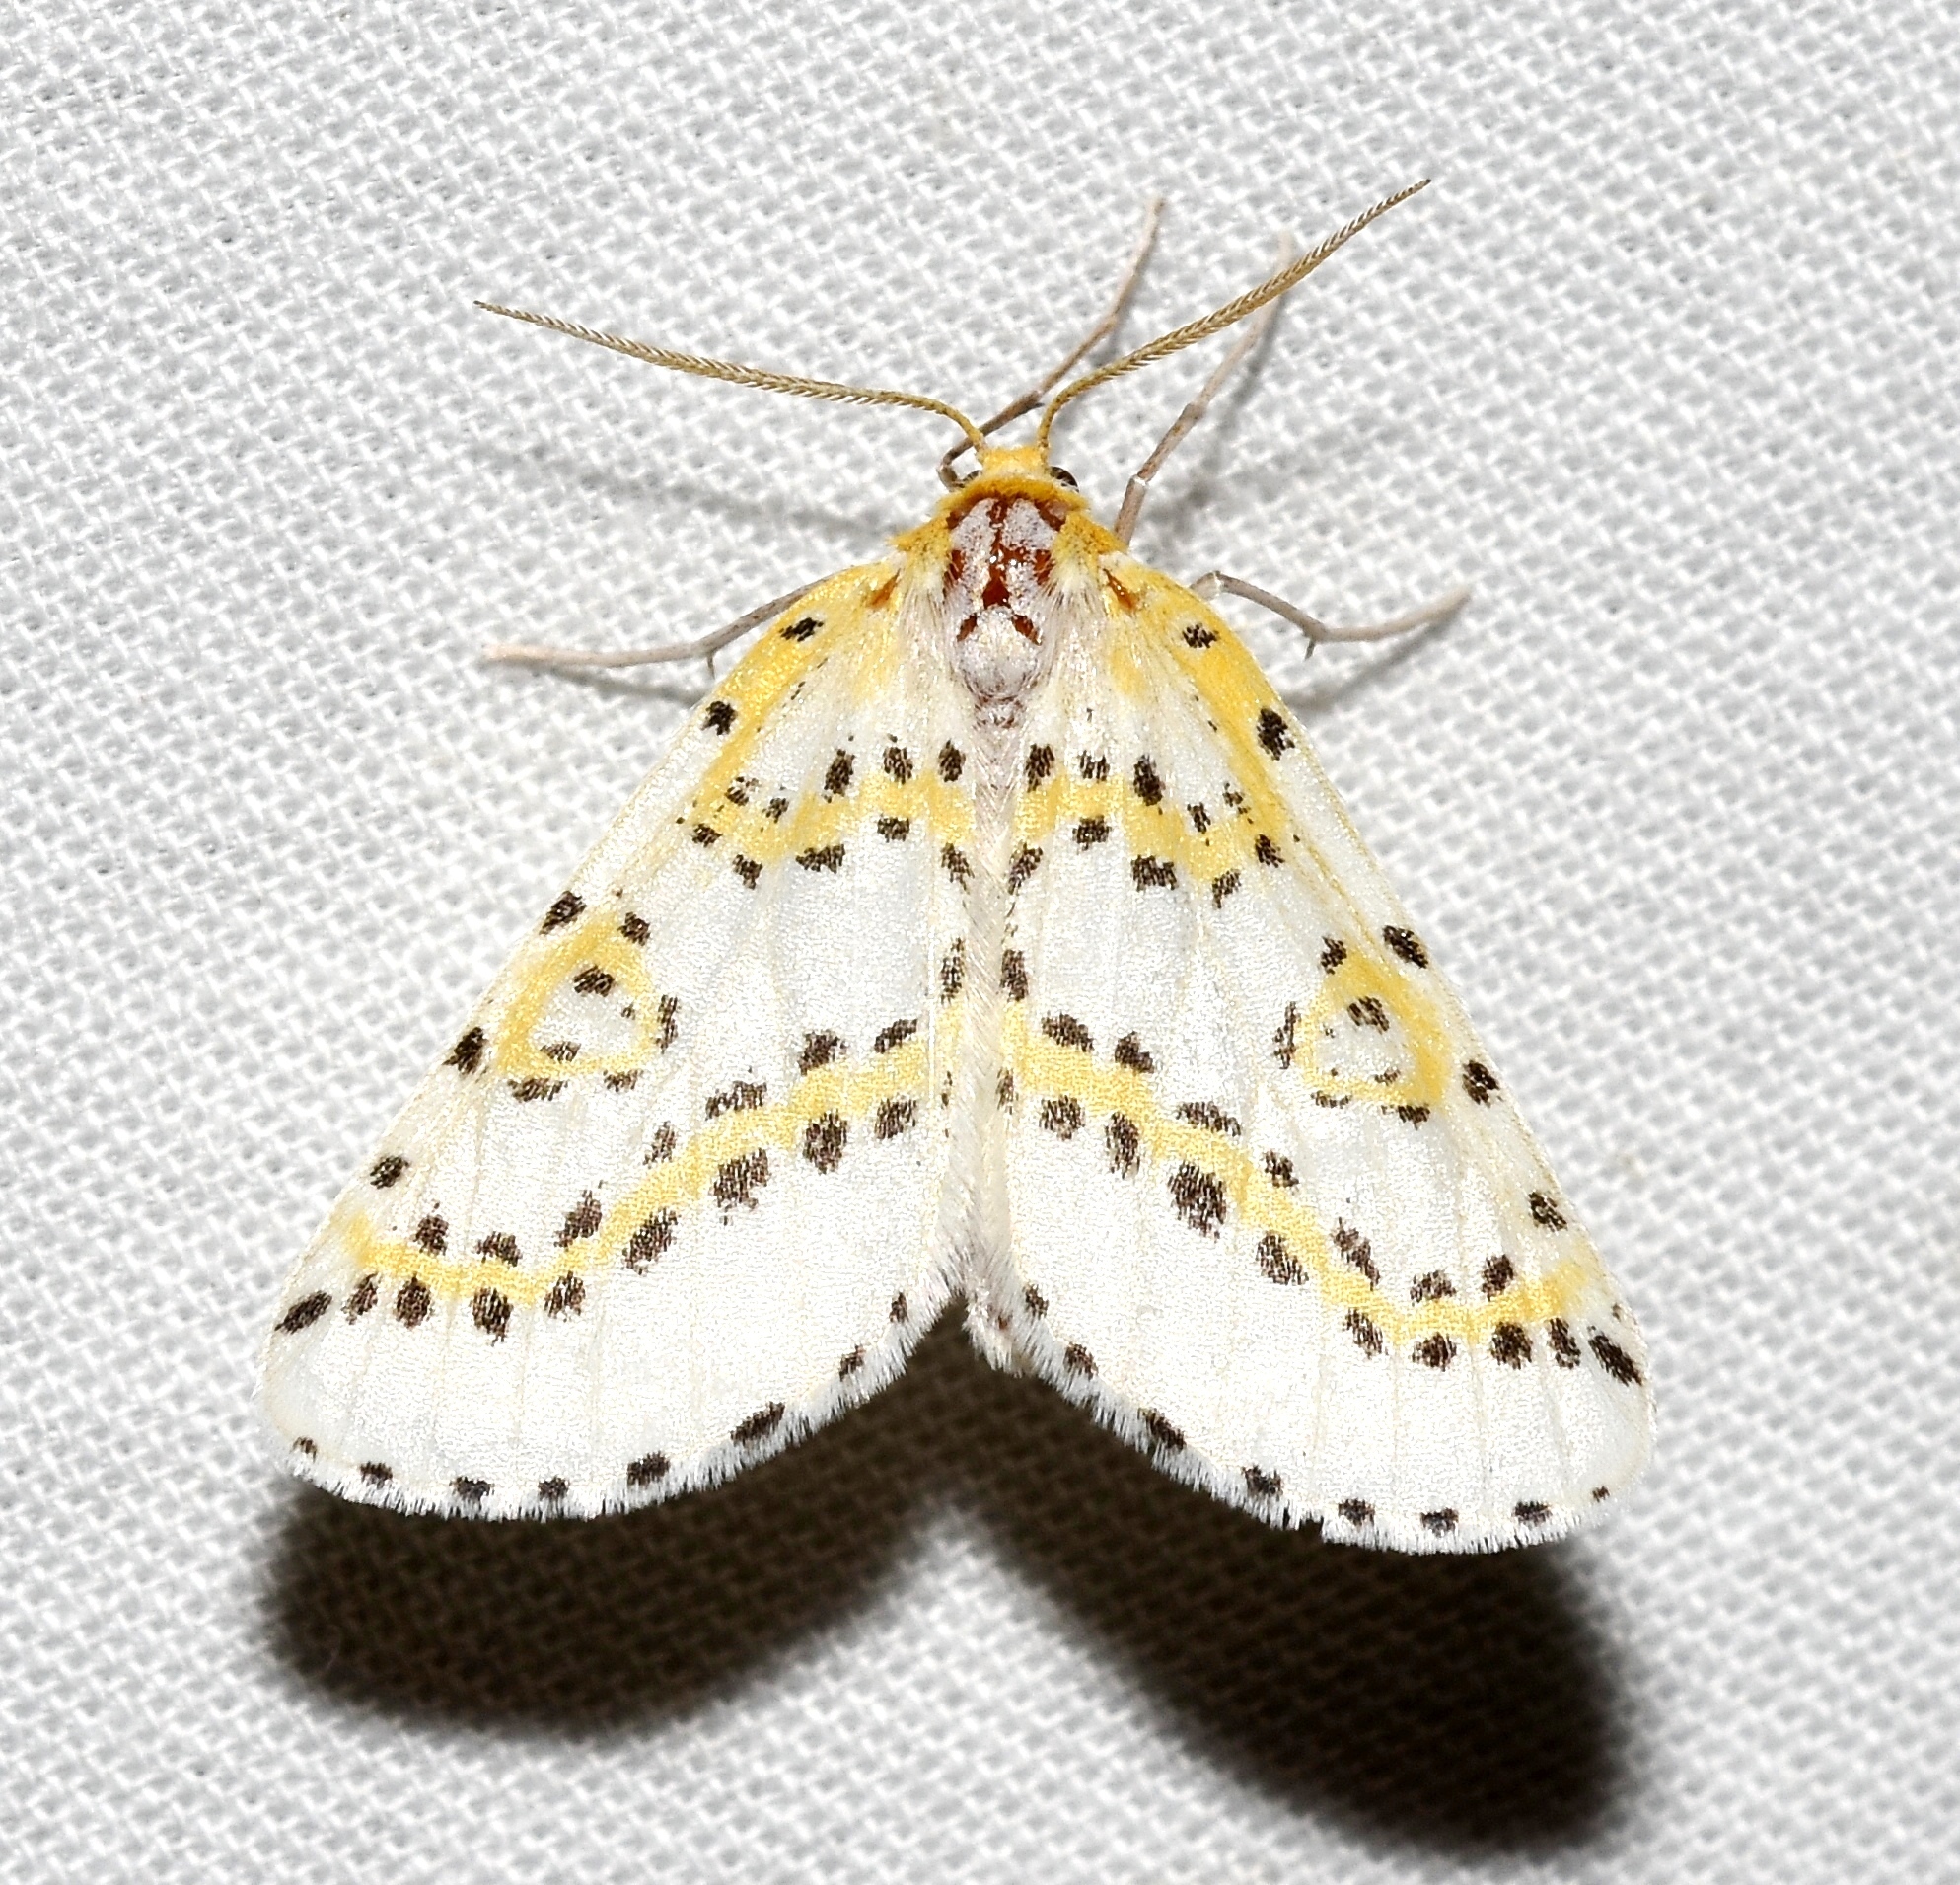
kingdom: Animalia
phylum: Arthropoda
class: Insecta
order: Lepidoptera
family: Geometridae
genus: Philtraea
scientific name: Philtraea monillata
